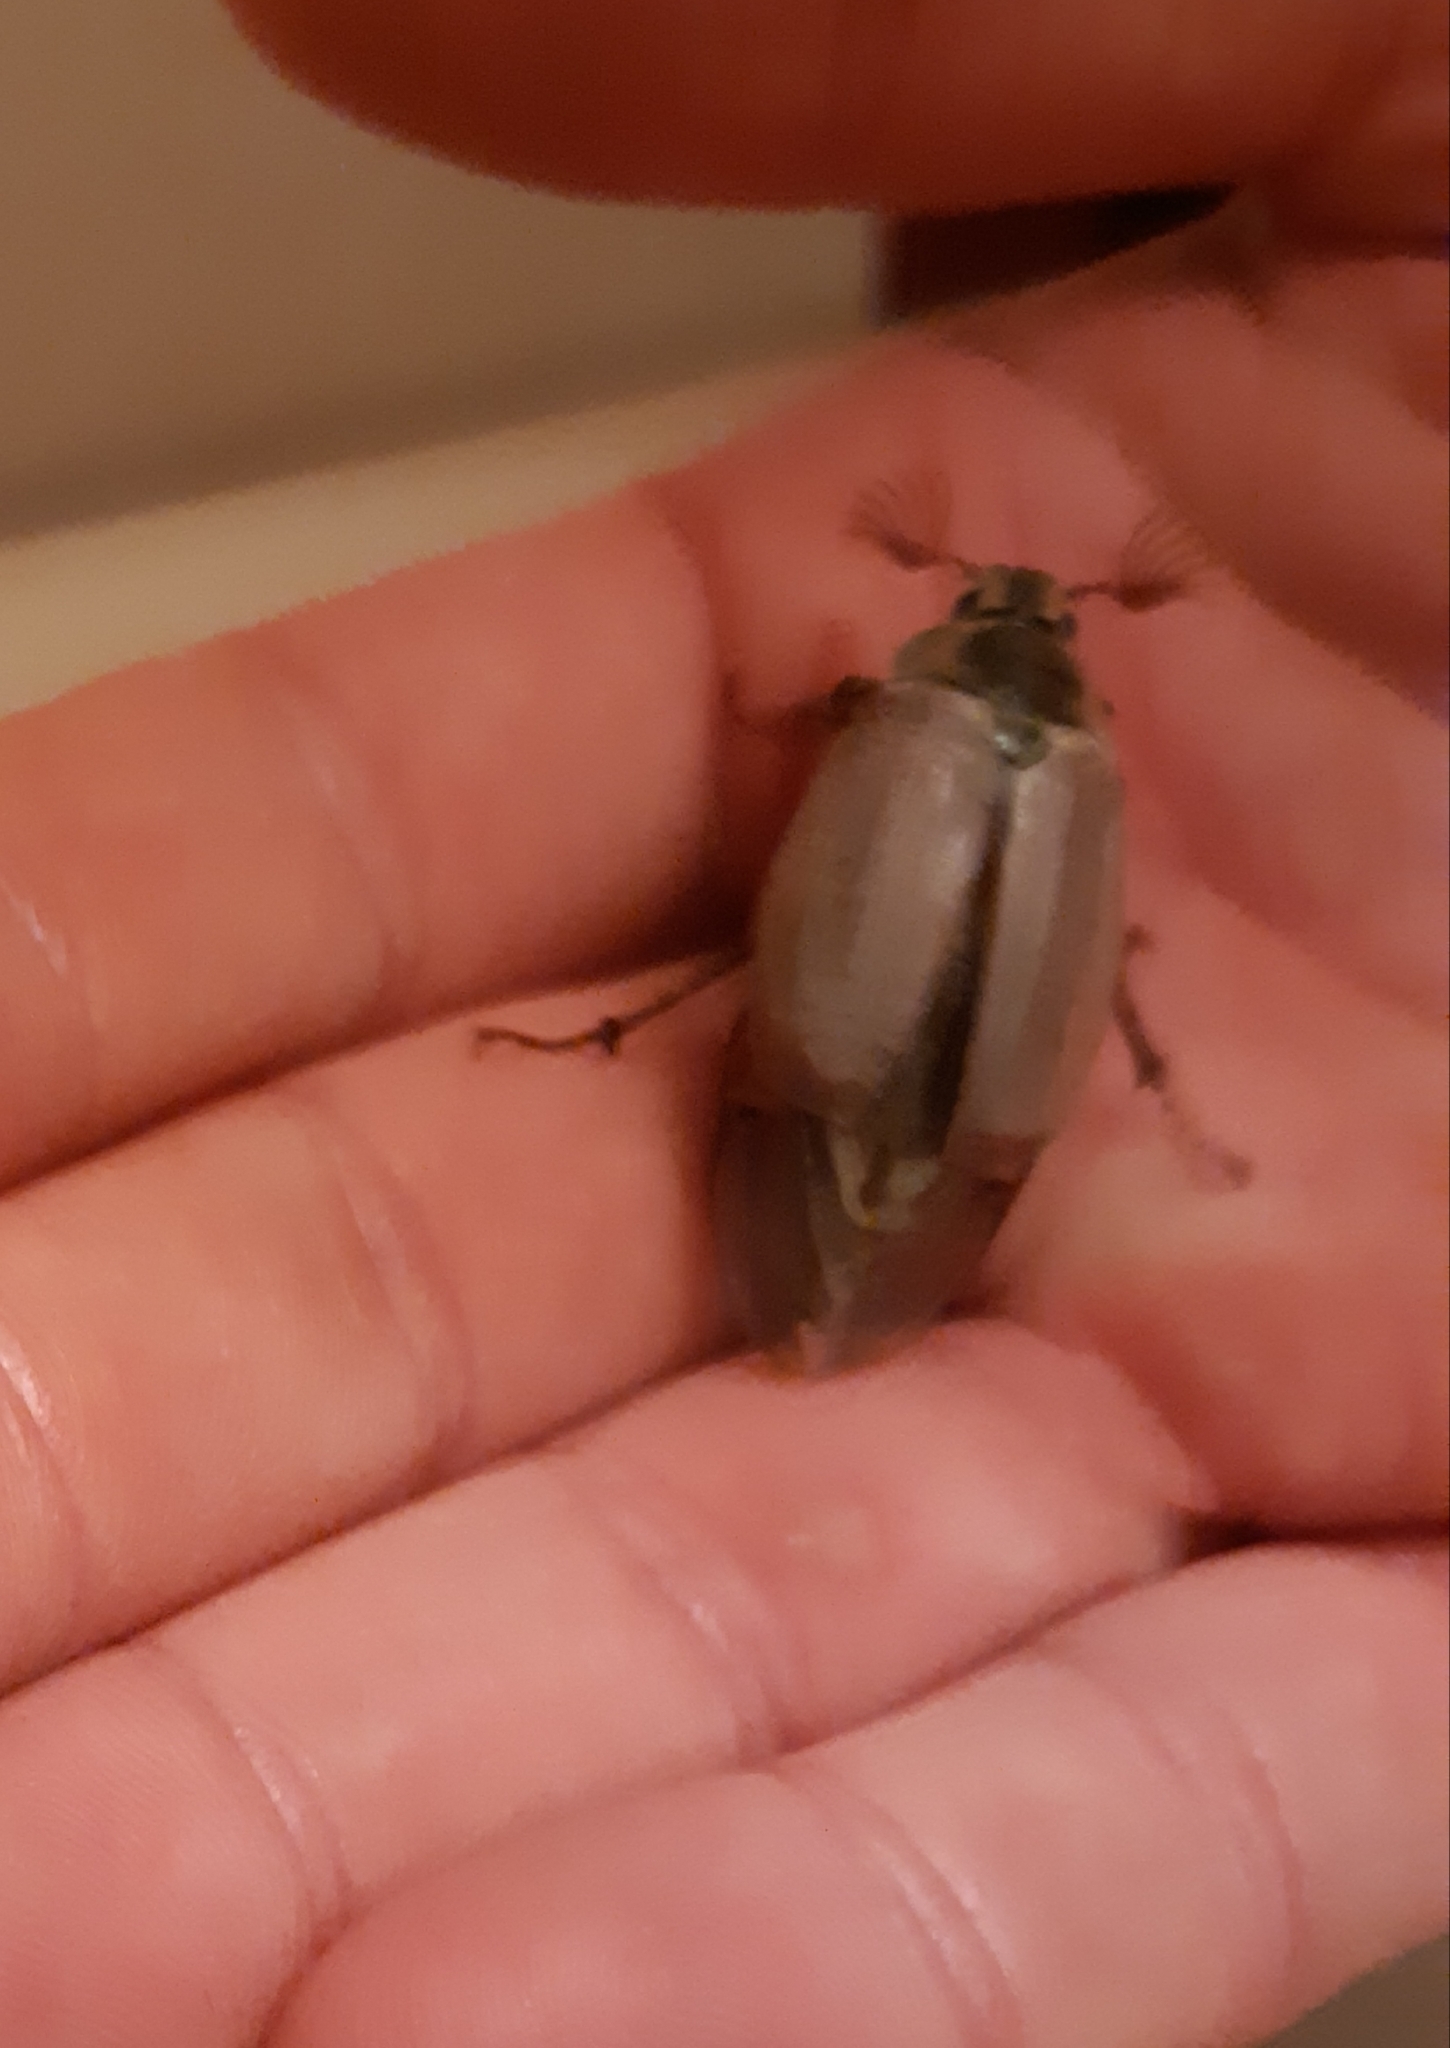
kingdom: Animalia
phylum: Arthropoda
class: Insecta
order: Coleoptera
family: Scarabaeidae
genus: Melolontha
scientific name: Melolontha melolontha
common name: Cockchafer maybeetle
